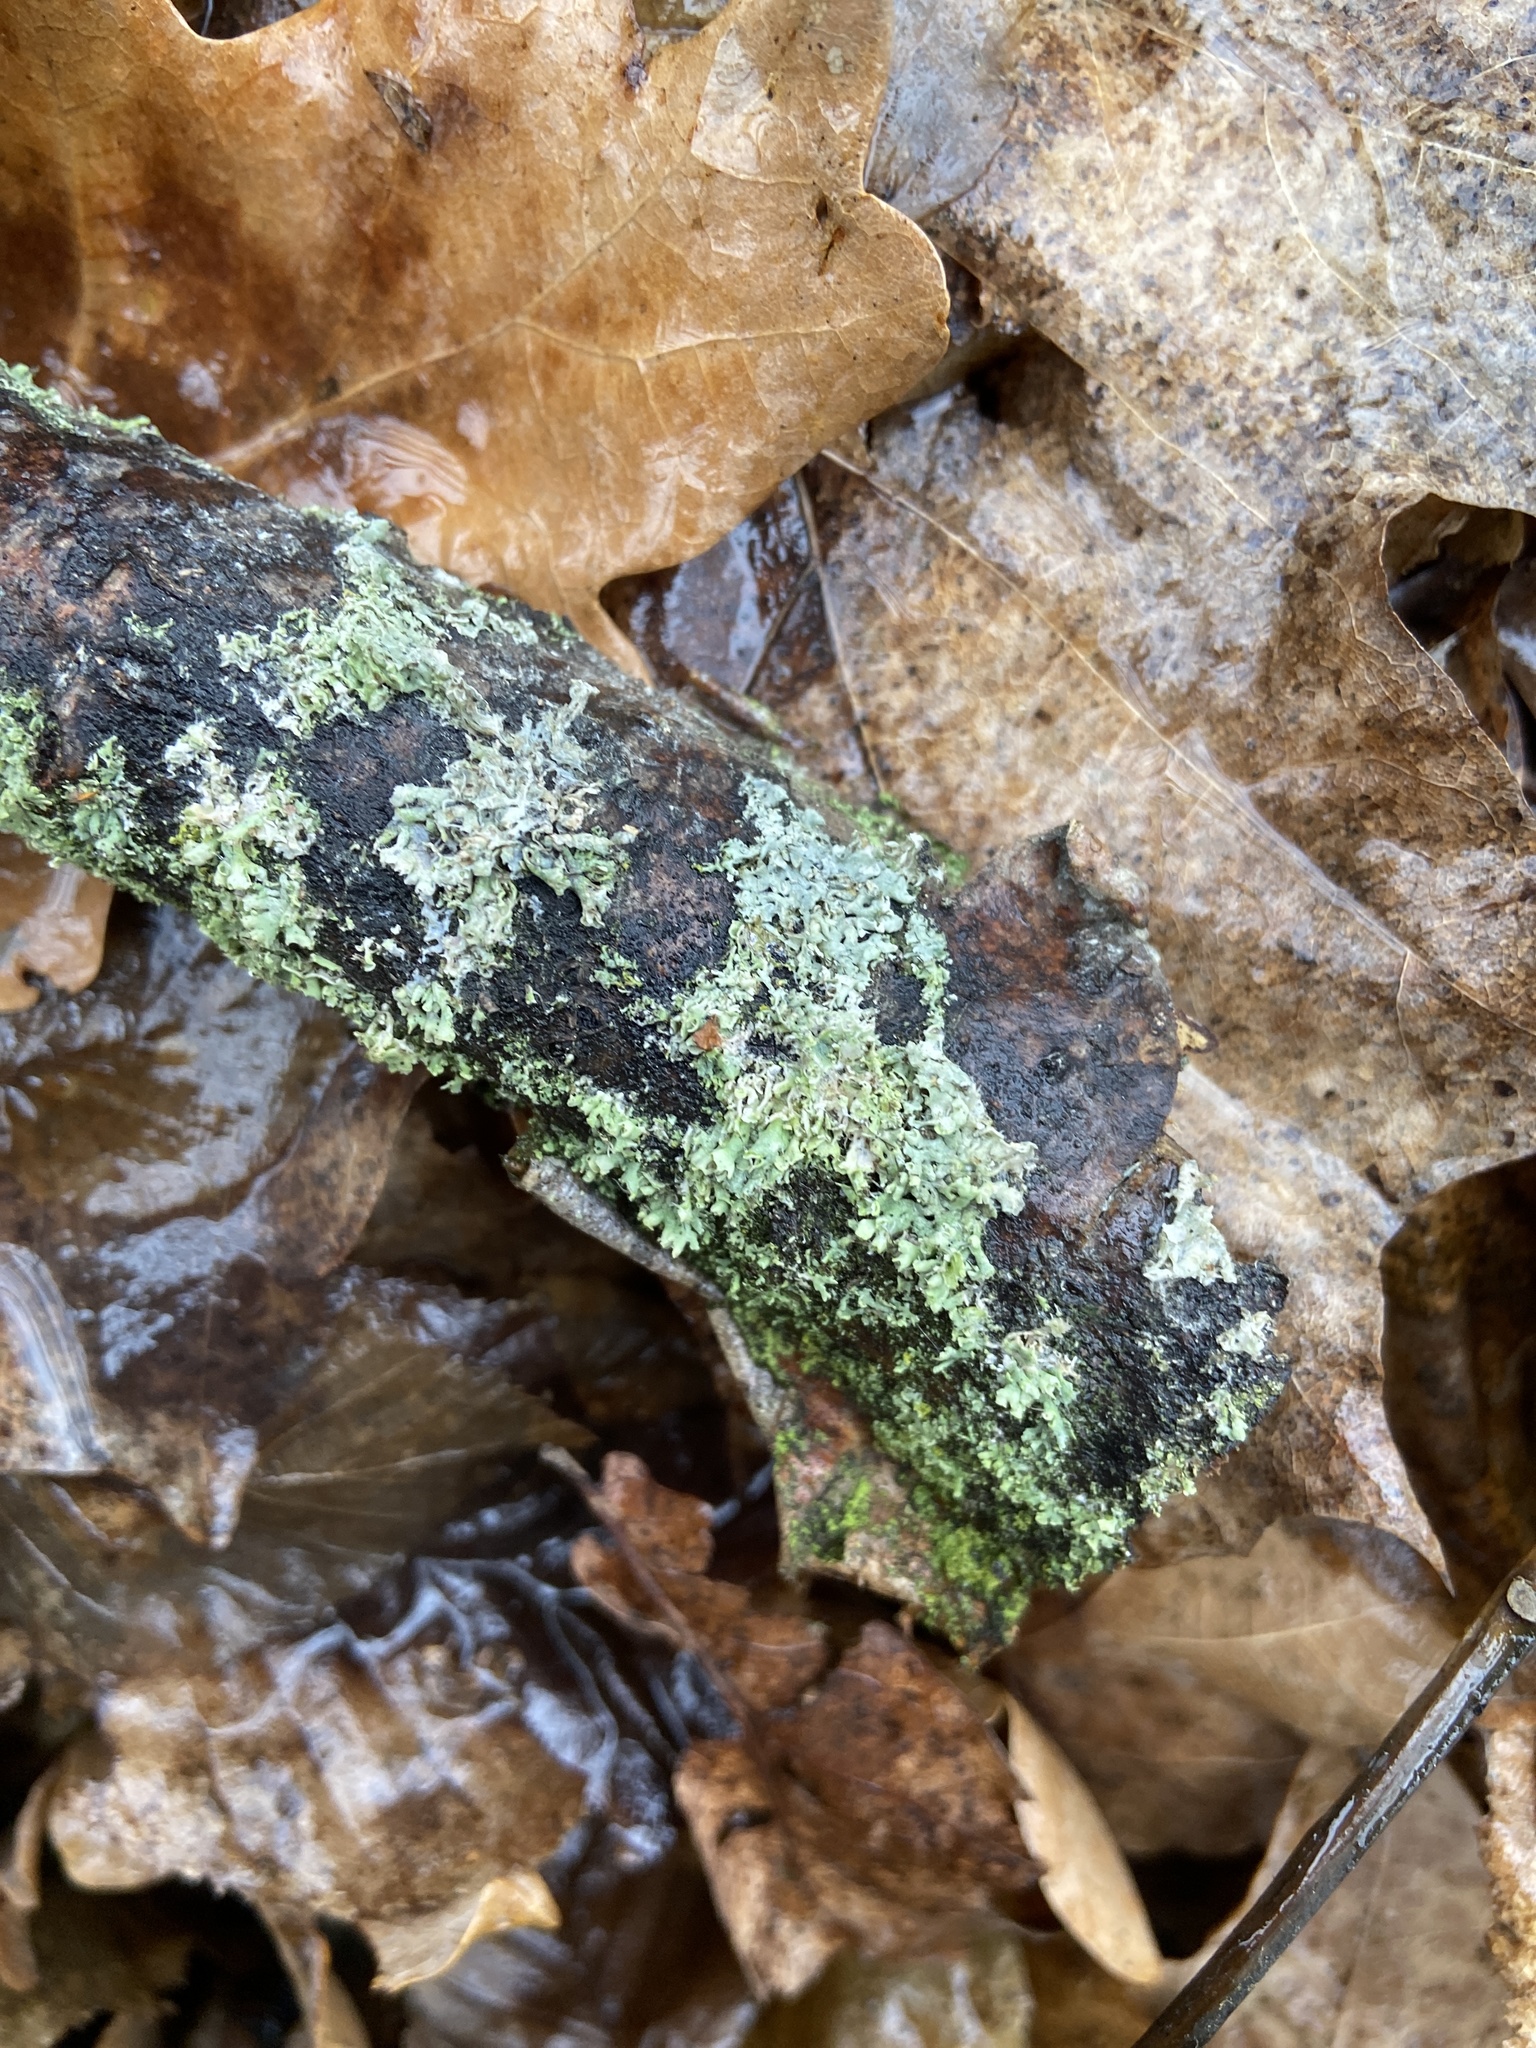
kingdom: Fungi
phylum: Ascomycota
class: Lecanoromycetes
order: Caliciales
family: Physciaceae
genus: Physcia
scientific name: Physcia adscendens
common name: Hooded rosette lichen
